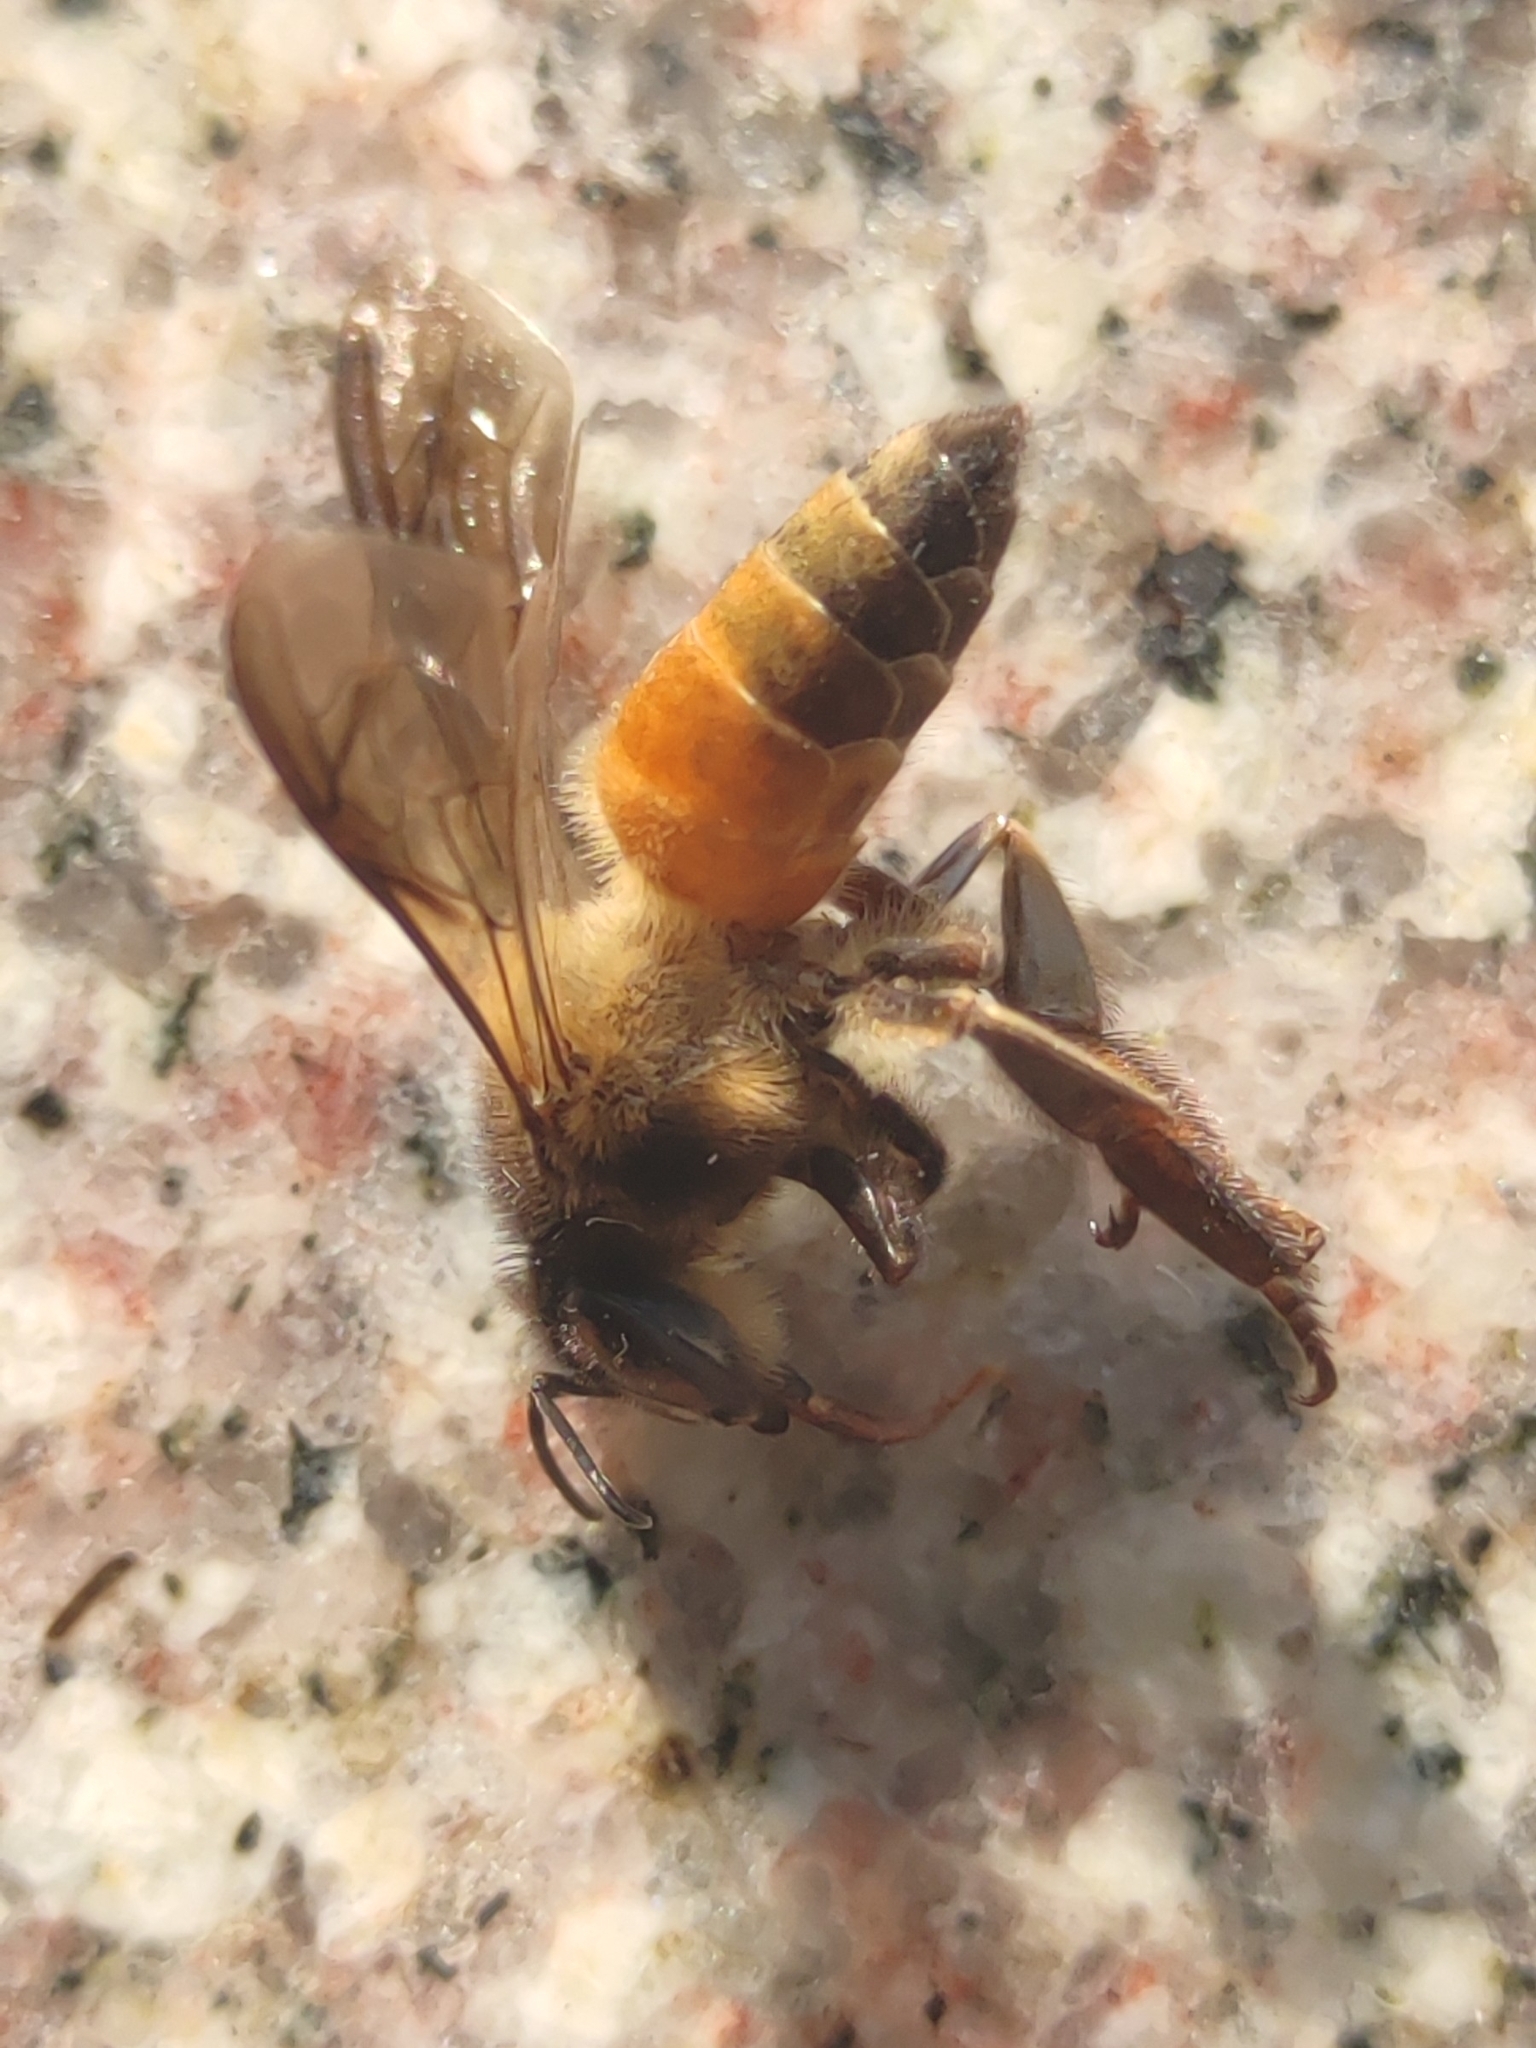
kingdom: Animalia
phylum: Arthropoda
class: Insecta
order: Hymenoptera
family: Apidae
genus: Apis
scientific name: Apis dorsata
